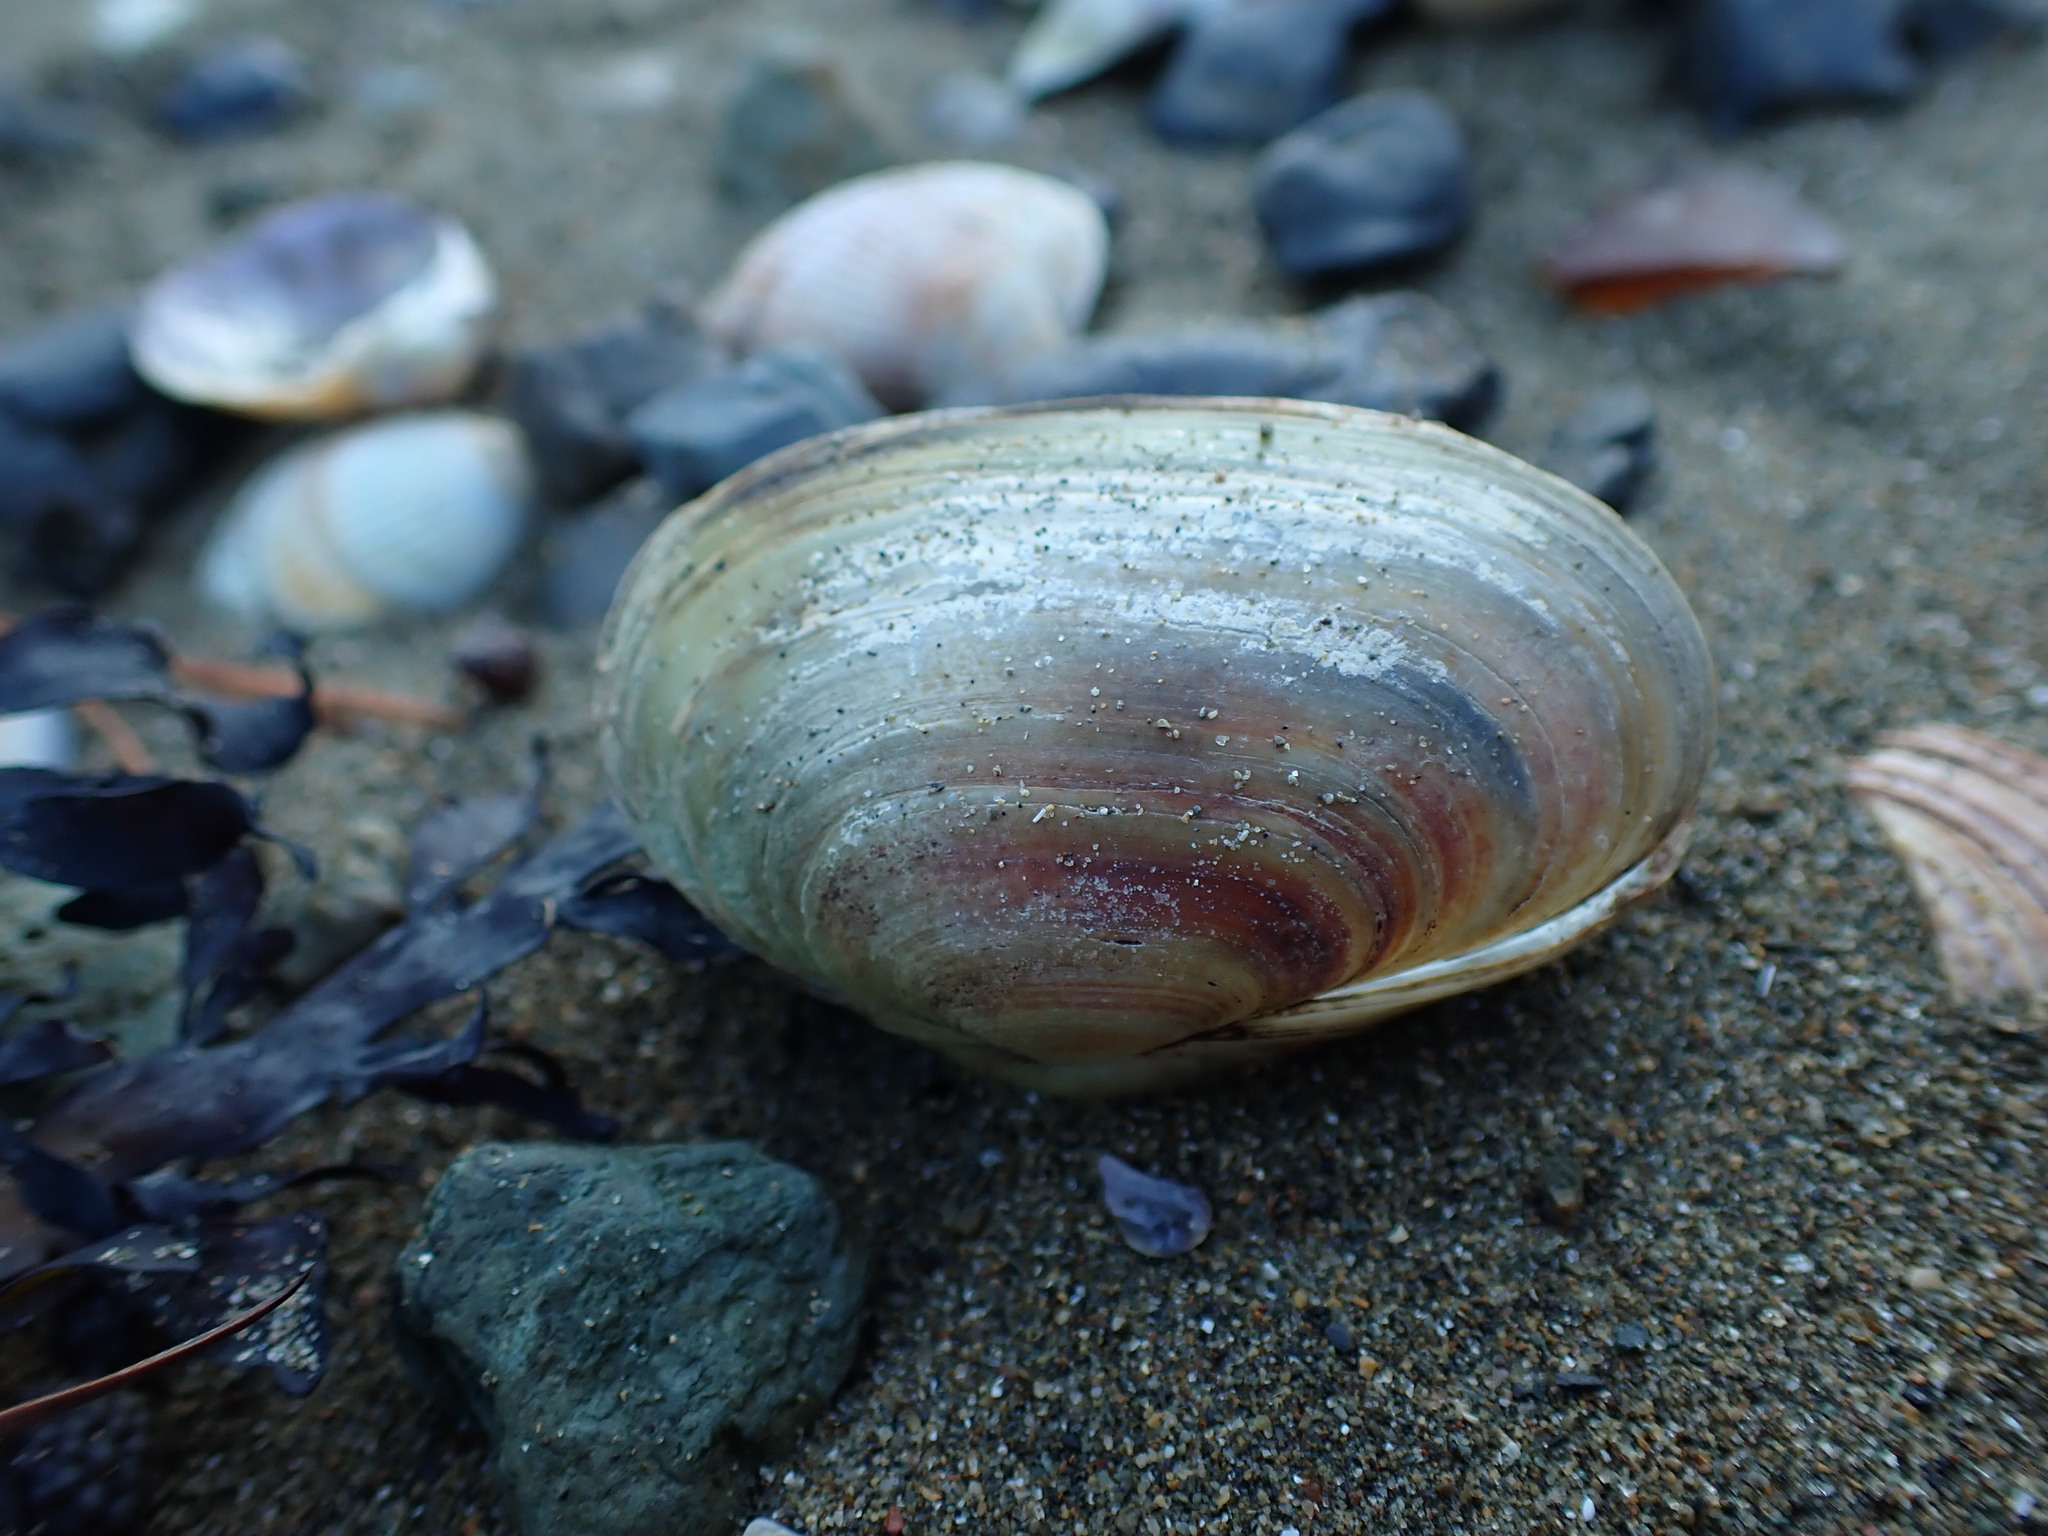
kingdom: Animalia
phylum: Mollusca
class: Bivalvia
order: Venerida
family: Mesodesmatidae
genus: Paphies
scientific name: Paphies australis
